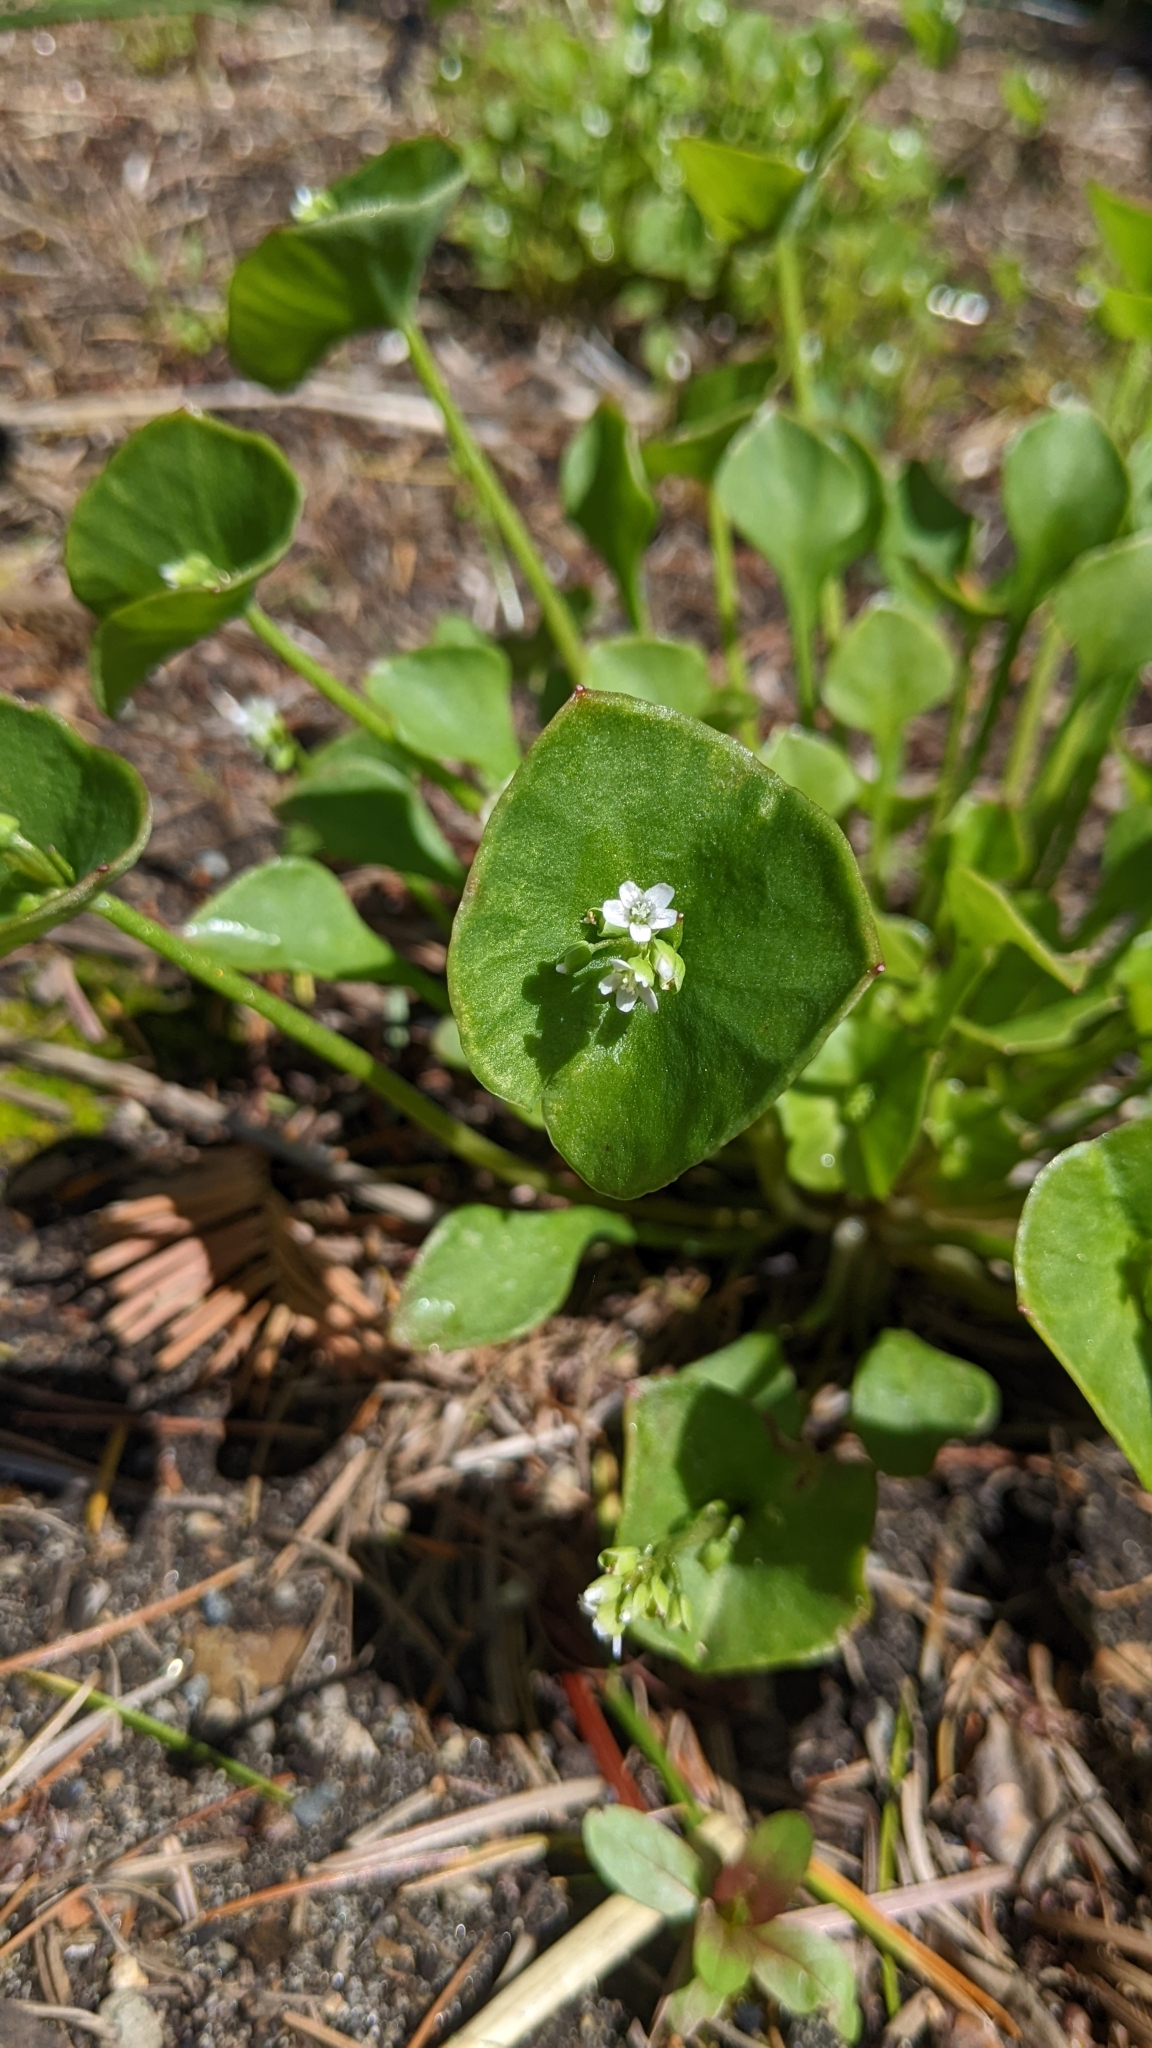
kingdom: Plantae
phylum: Tracheophyta
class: Magnoliopsida
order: Caryophyllales
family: Montiaceae
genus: Claytonia
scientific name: Claytonia perfoliata
